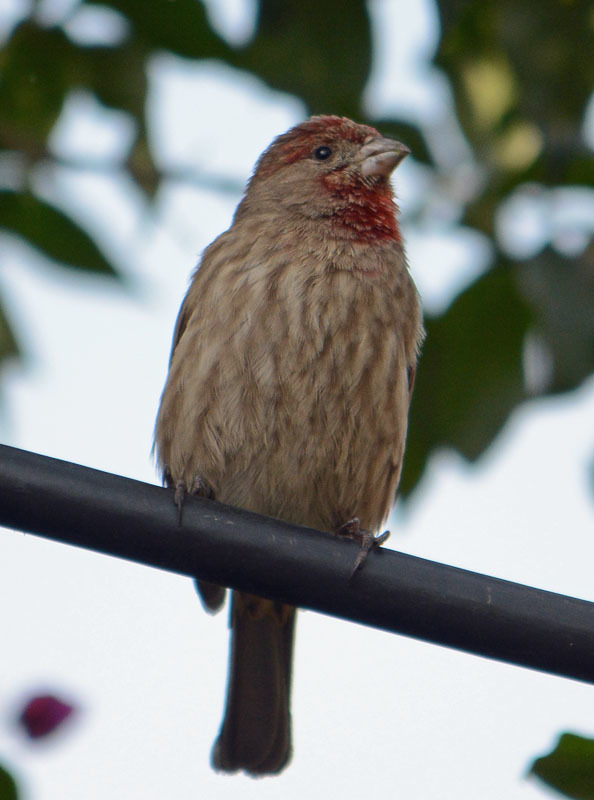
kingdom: Animalia
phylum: Chordata
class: Aves
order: Passeriformes
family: Fringillidae
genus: Haemorhous
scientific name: Haemorhous mexicanus
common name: House finch
